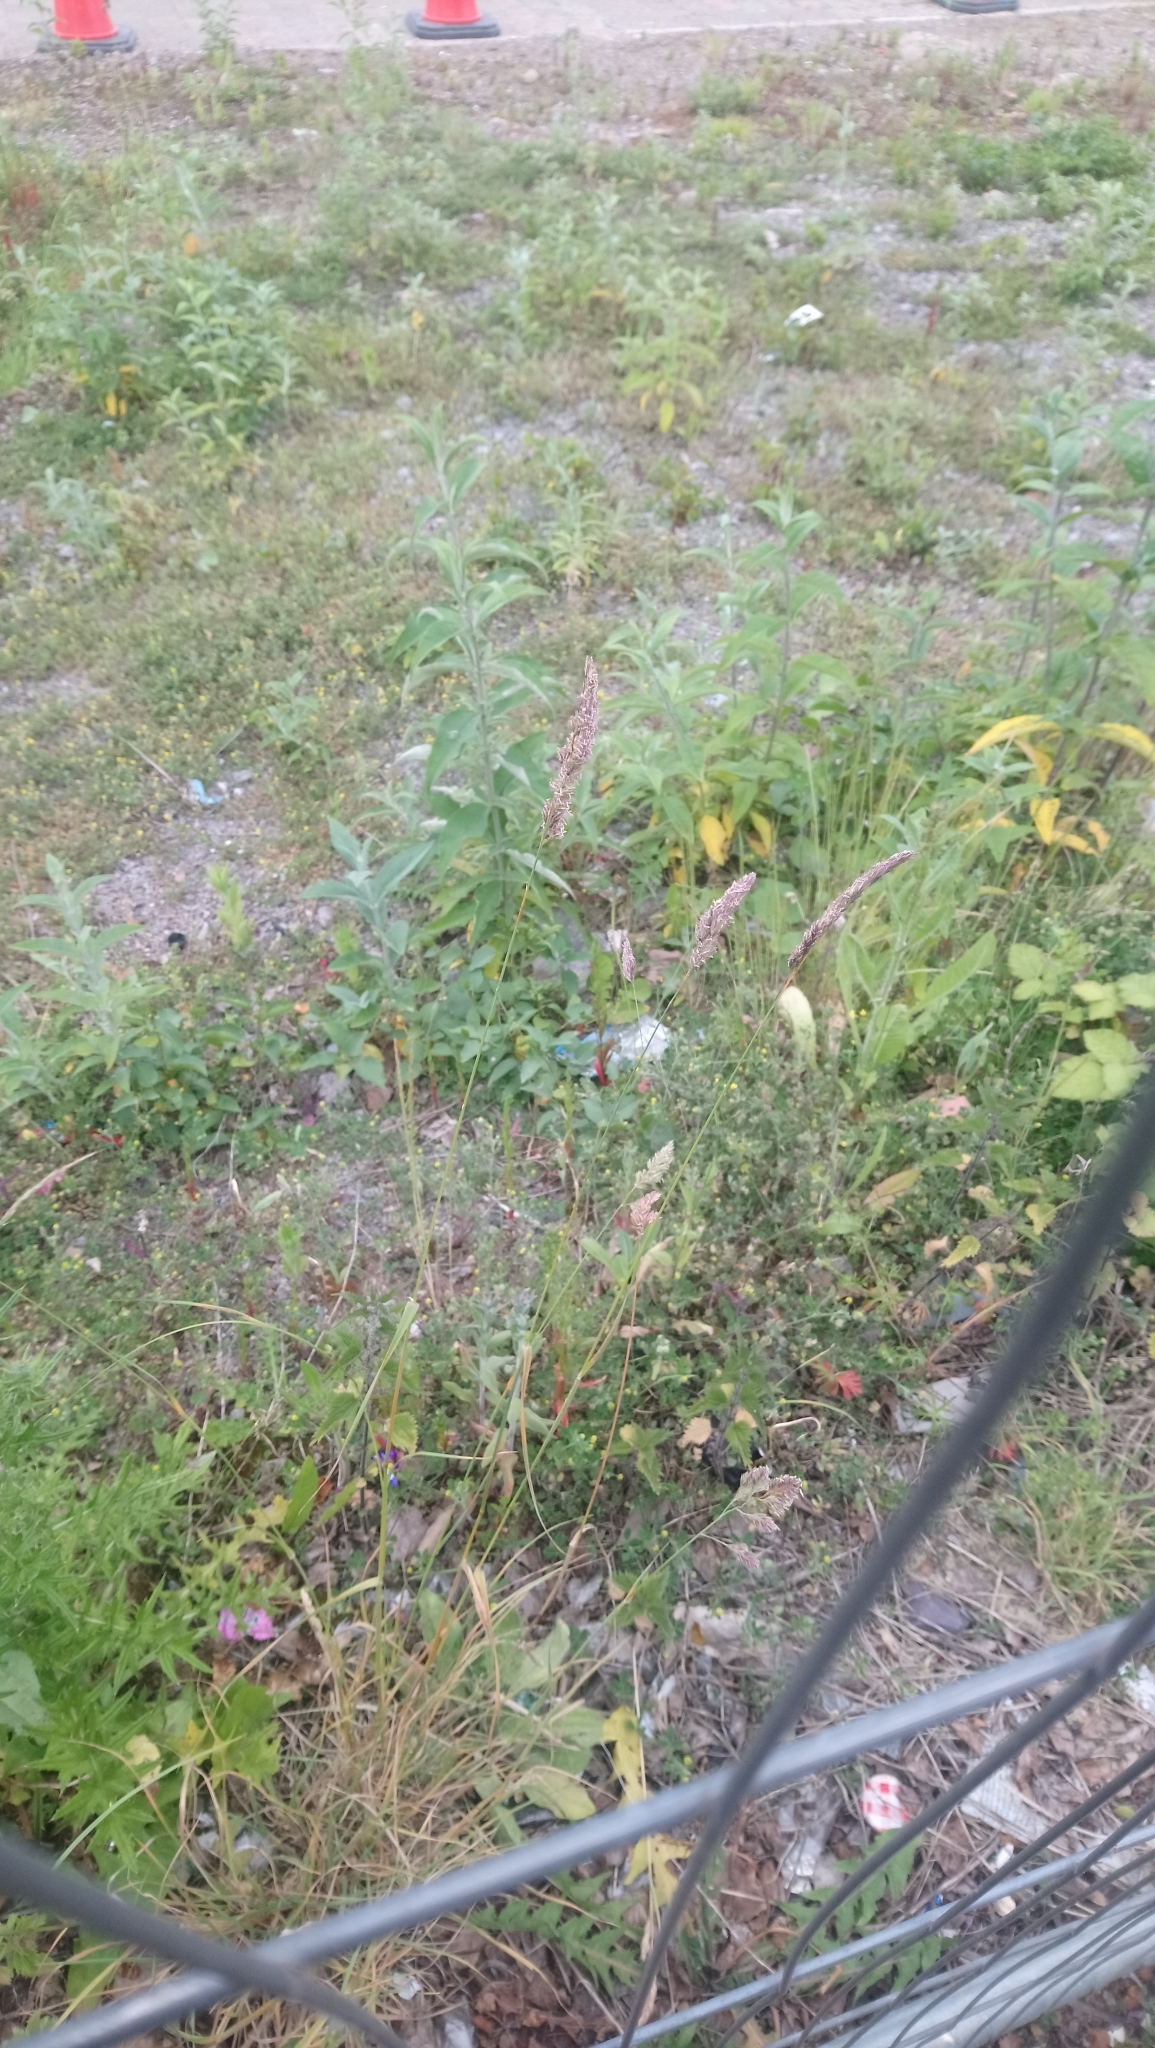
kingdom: Plantae
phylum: Tracheophyta
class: Liliopsida
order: Poales
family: Poaceae
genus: Dactylis
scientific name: Dactylis glomerata
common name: Orchardgrass
